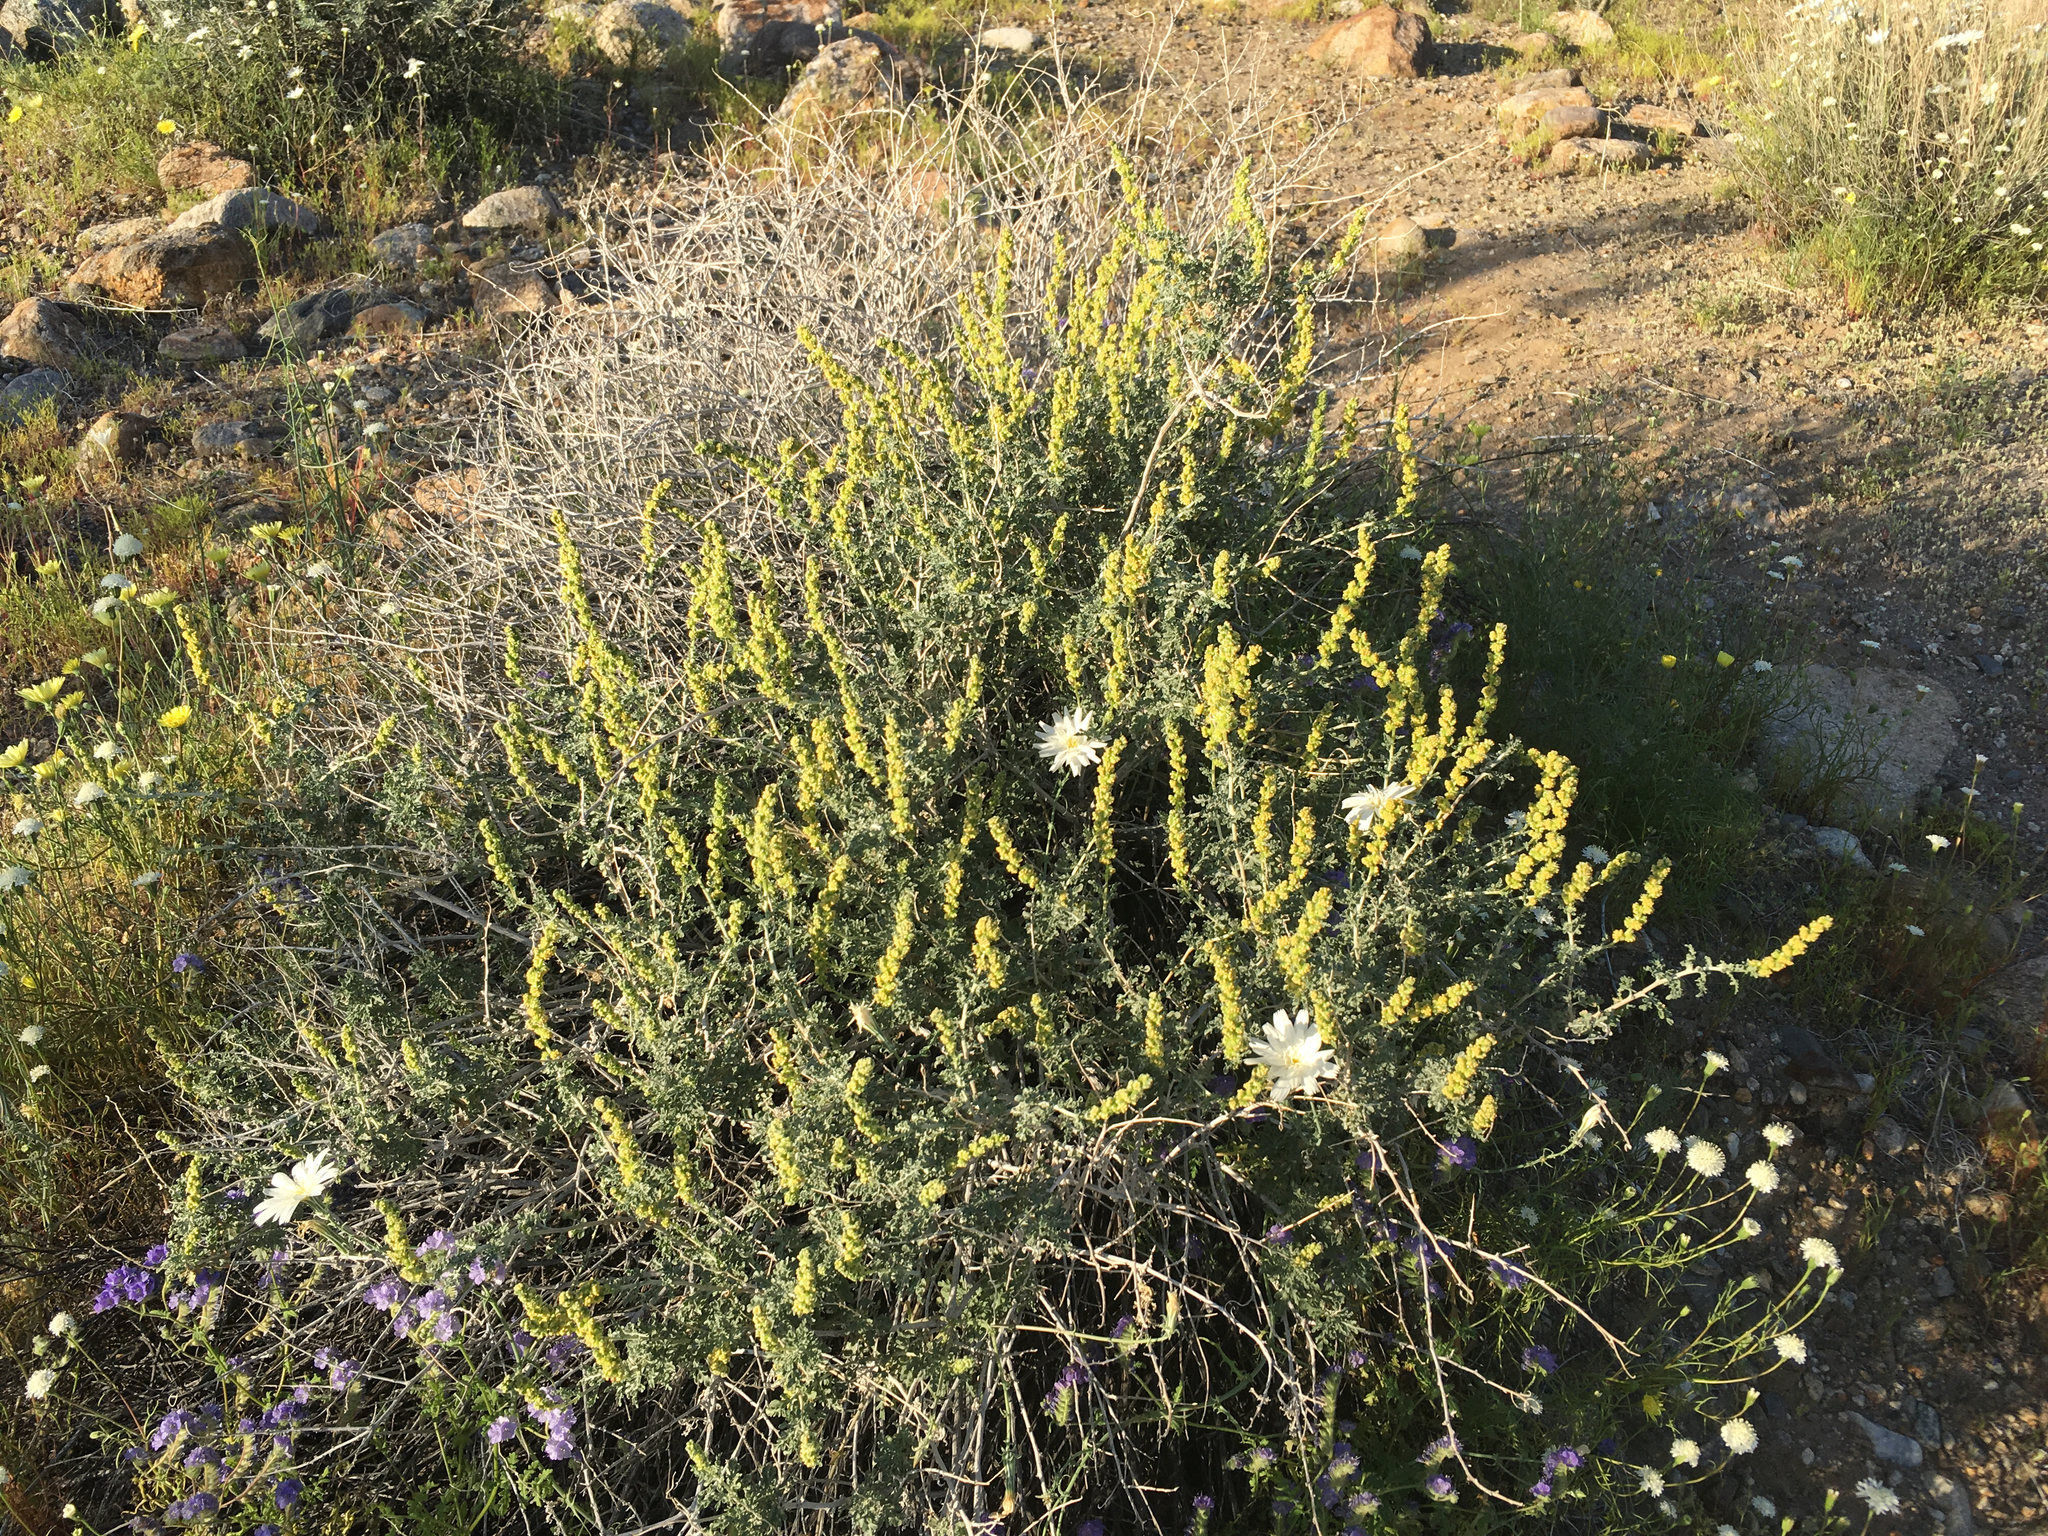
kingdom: Plantae
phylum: Tracheophyta
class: Magnoliopsida
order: Asterales
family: Asteraceae
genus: Ambrosia
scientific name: Ambrosia dumosa
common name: Bur-sage
